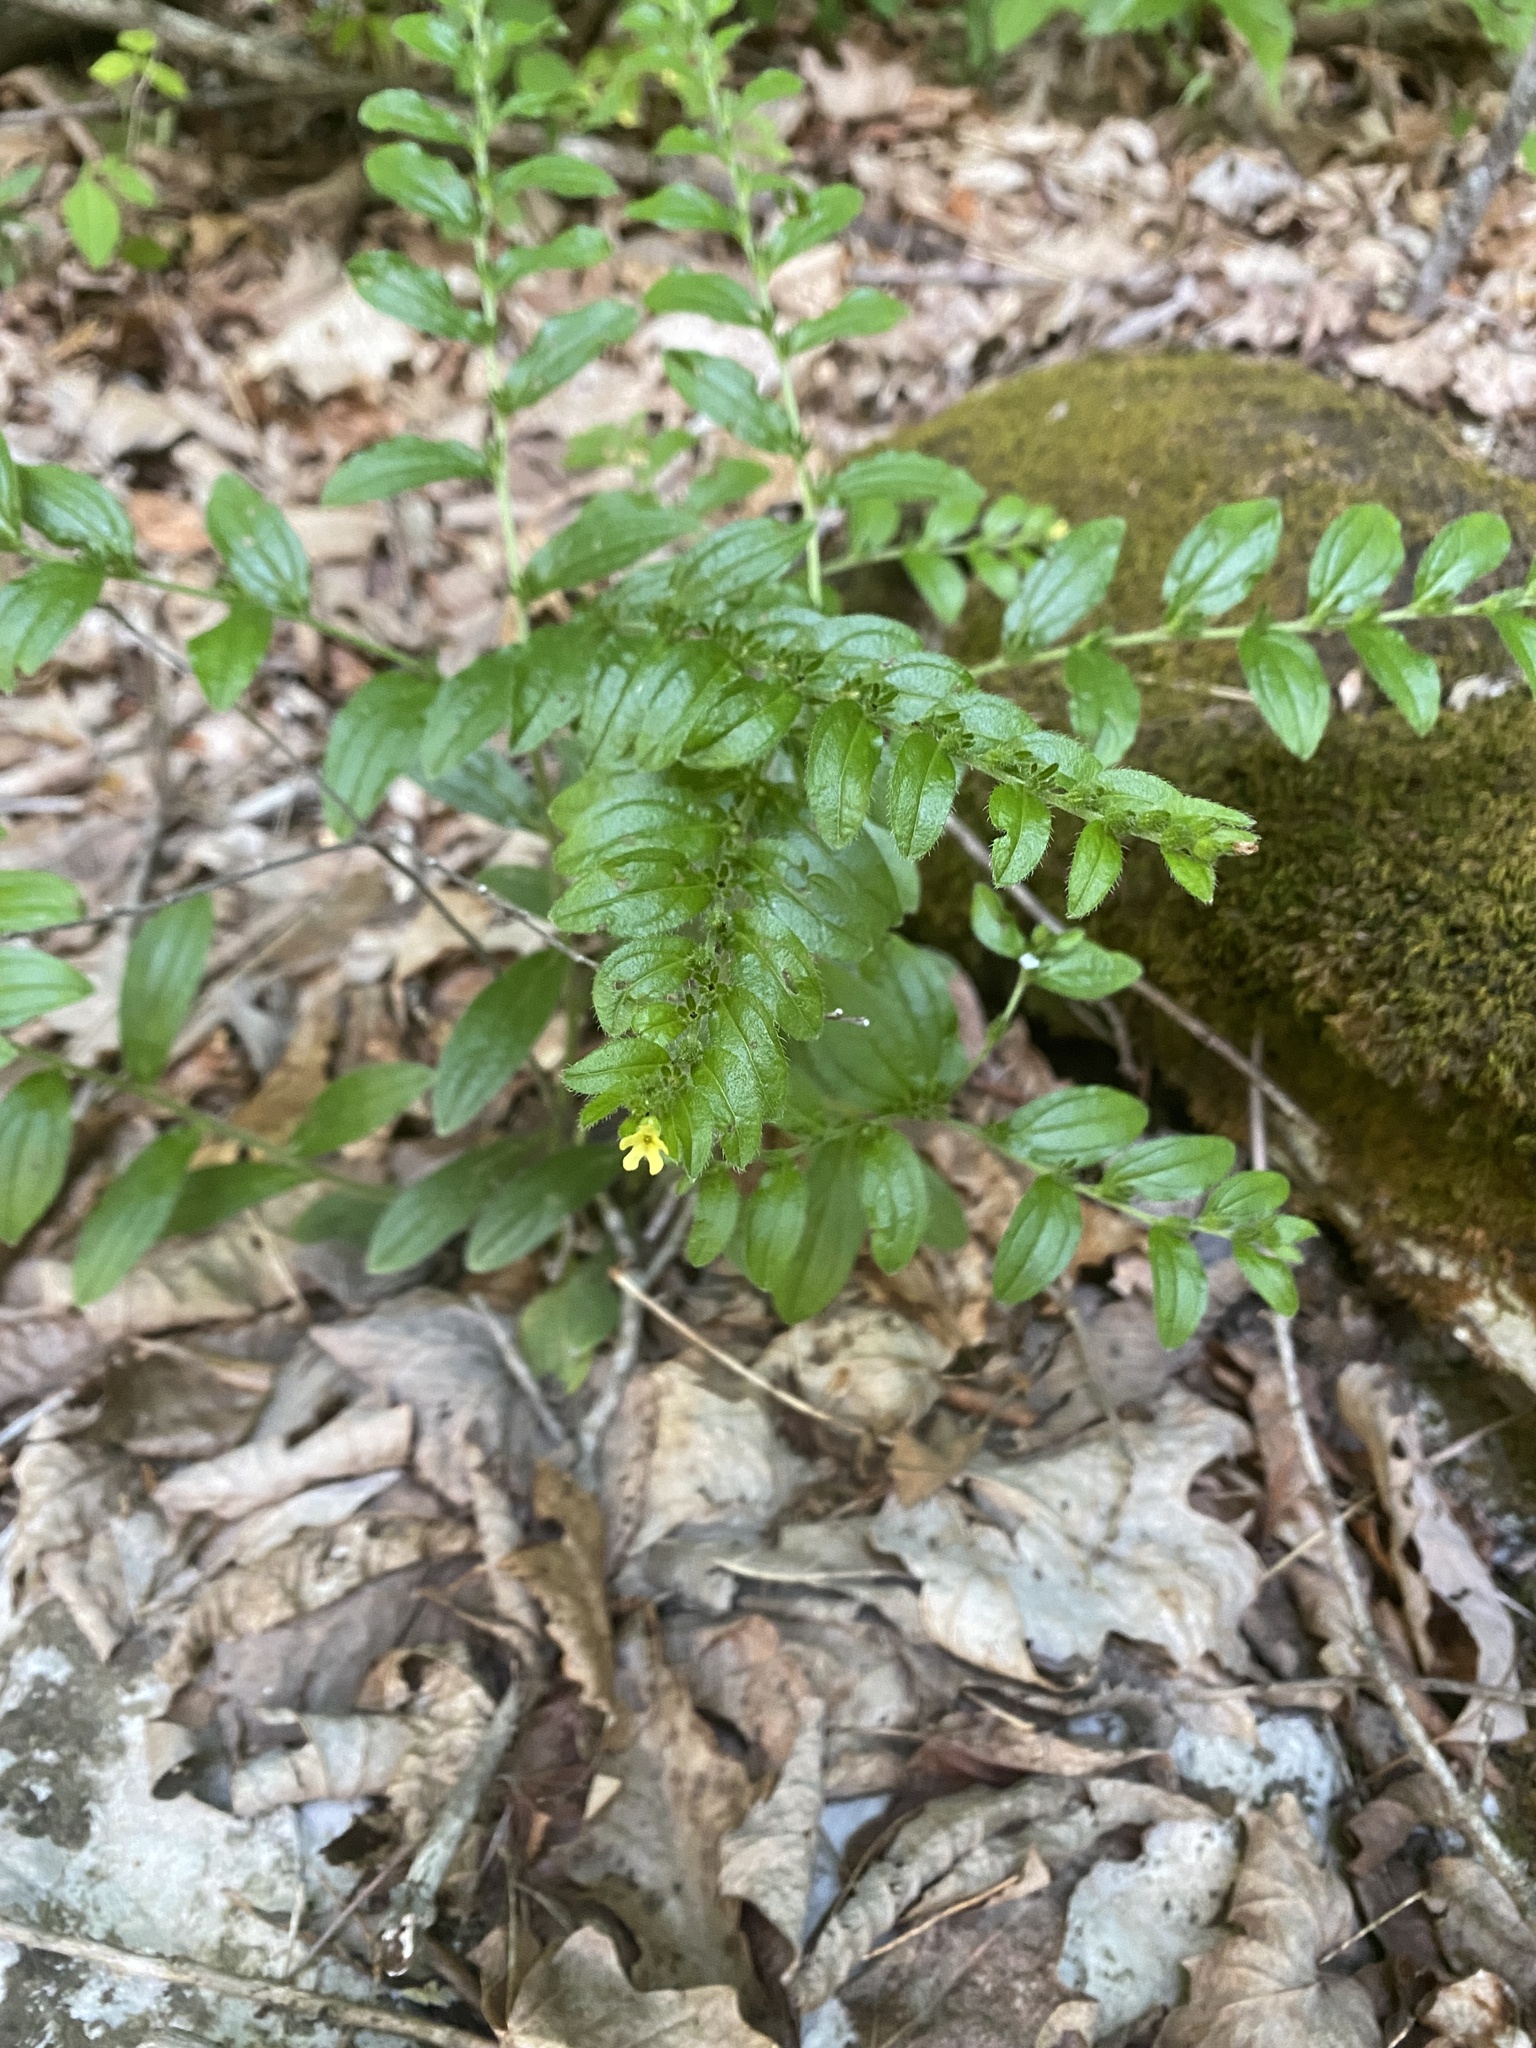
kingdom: Plantae
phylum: Tracheophyta
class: Magnoliopsida
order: Boraginales
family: Boraginaceae
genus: Lithospermum
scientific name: Lithospermum tuberosum
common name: Southern stoneseed
